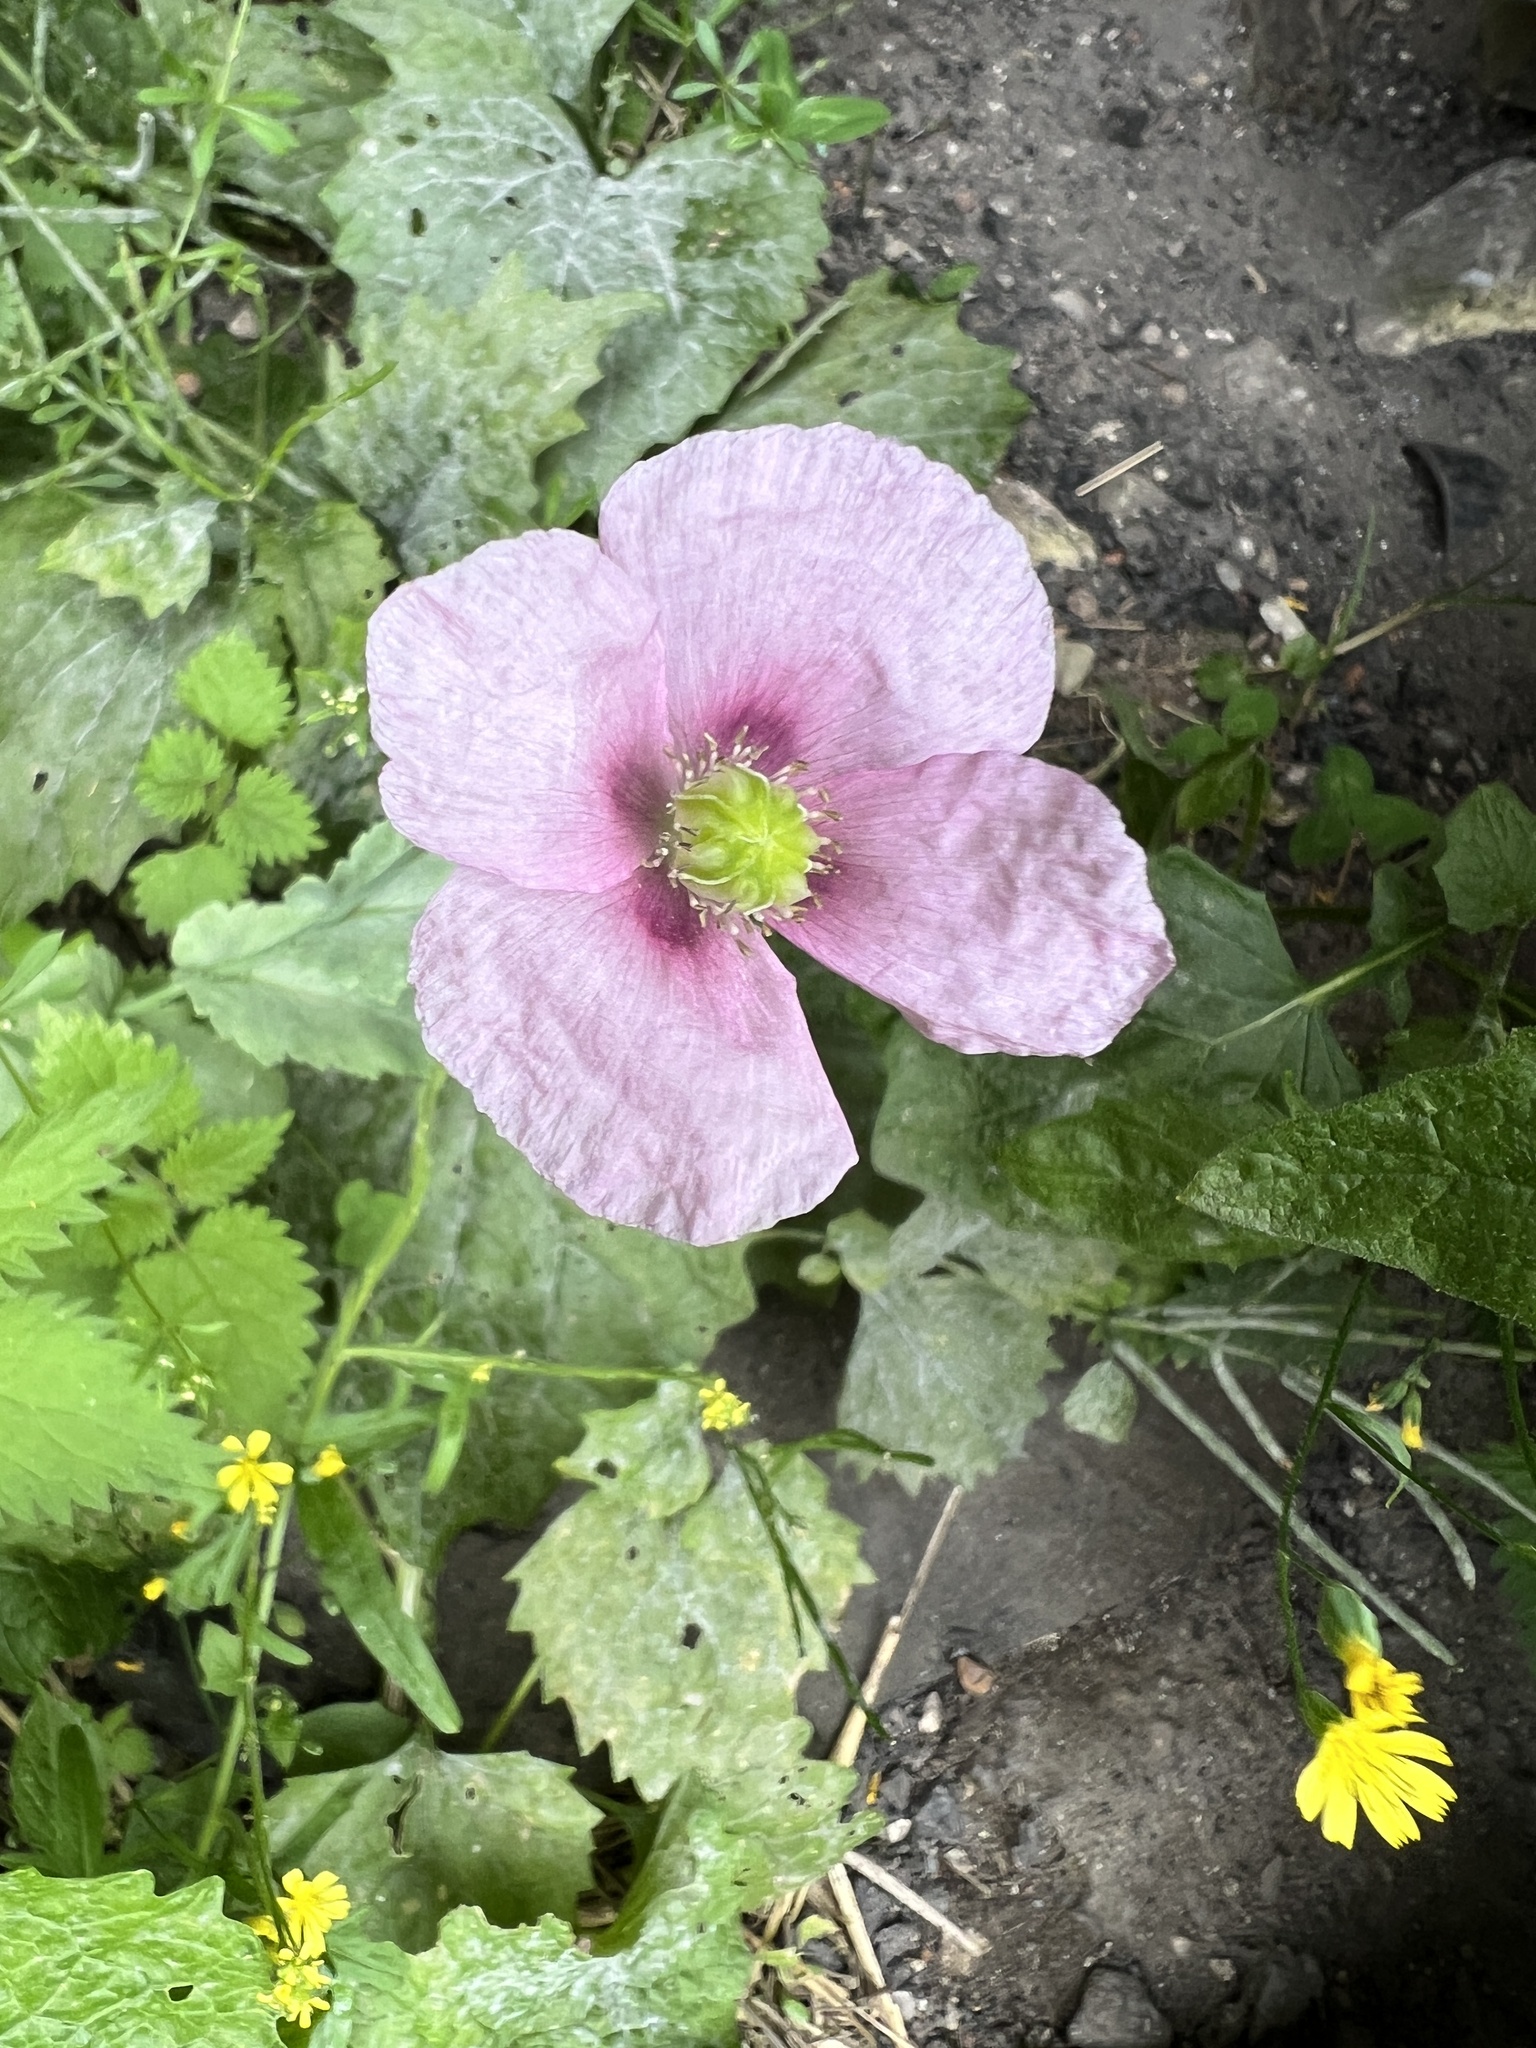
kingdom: Plantae
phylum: Tracheophyta
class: Magnoliopsida
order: Ranunculales
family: Papaveraceae
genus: Papaver
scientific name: Papaver somniferum
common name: Opium poppy
